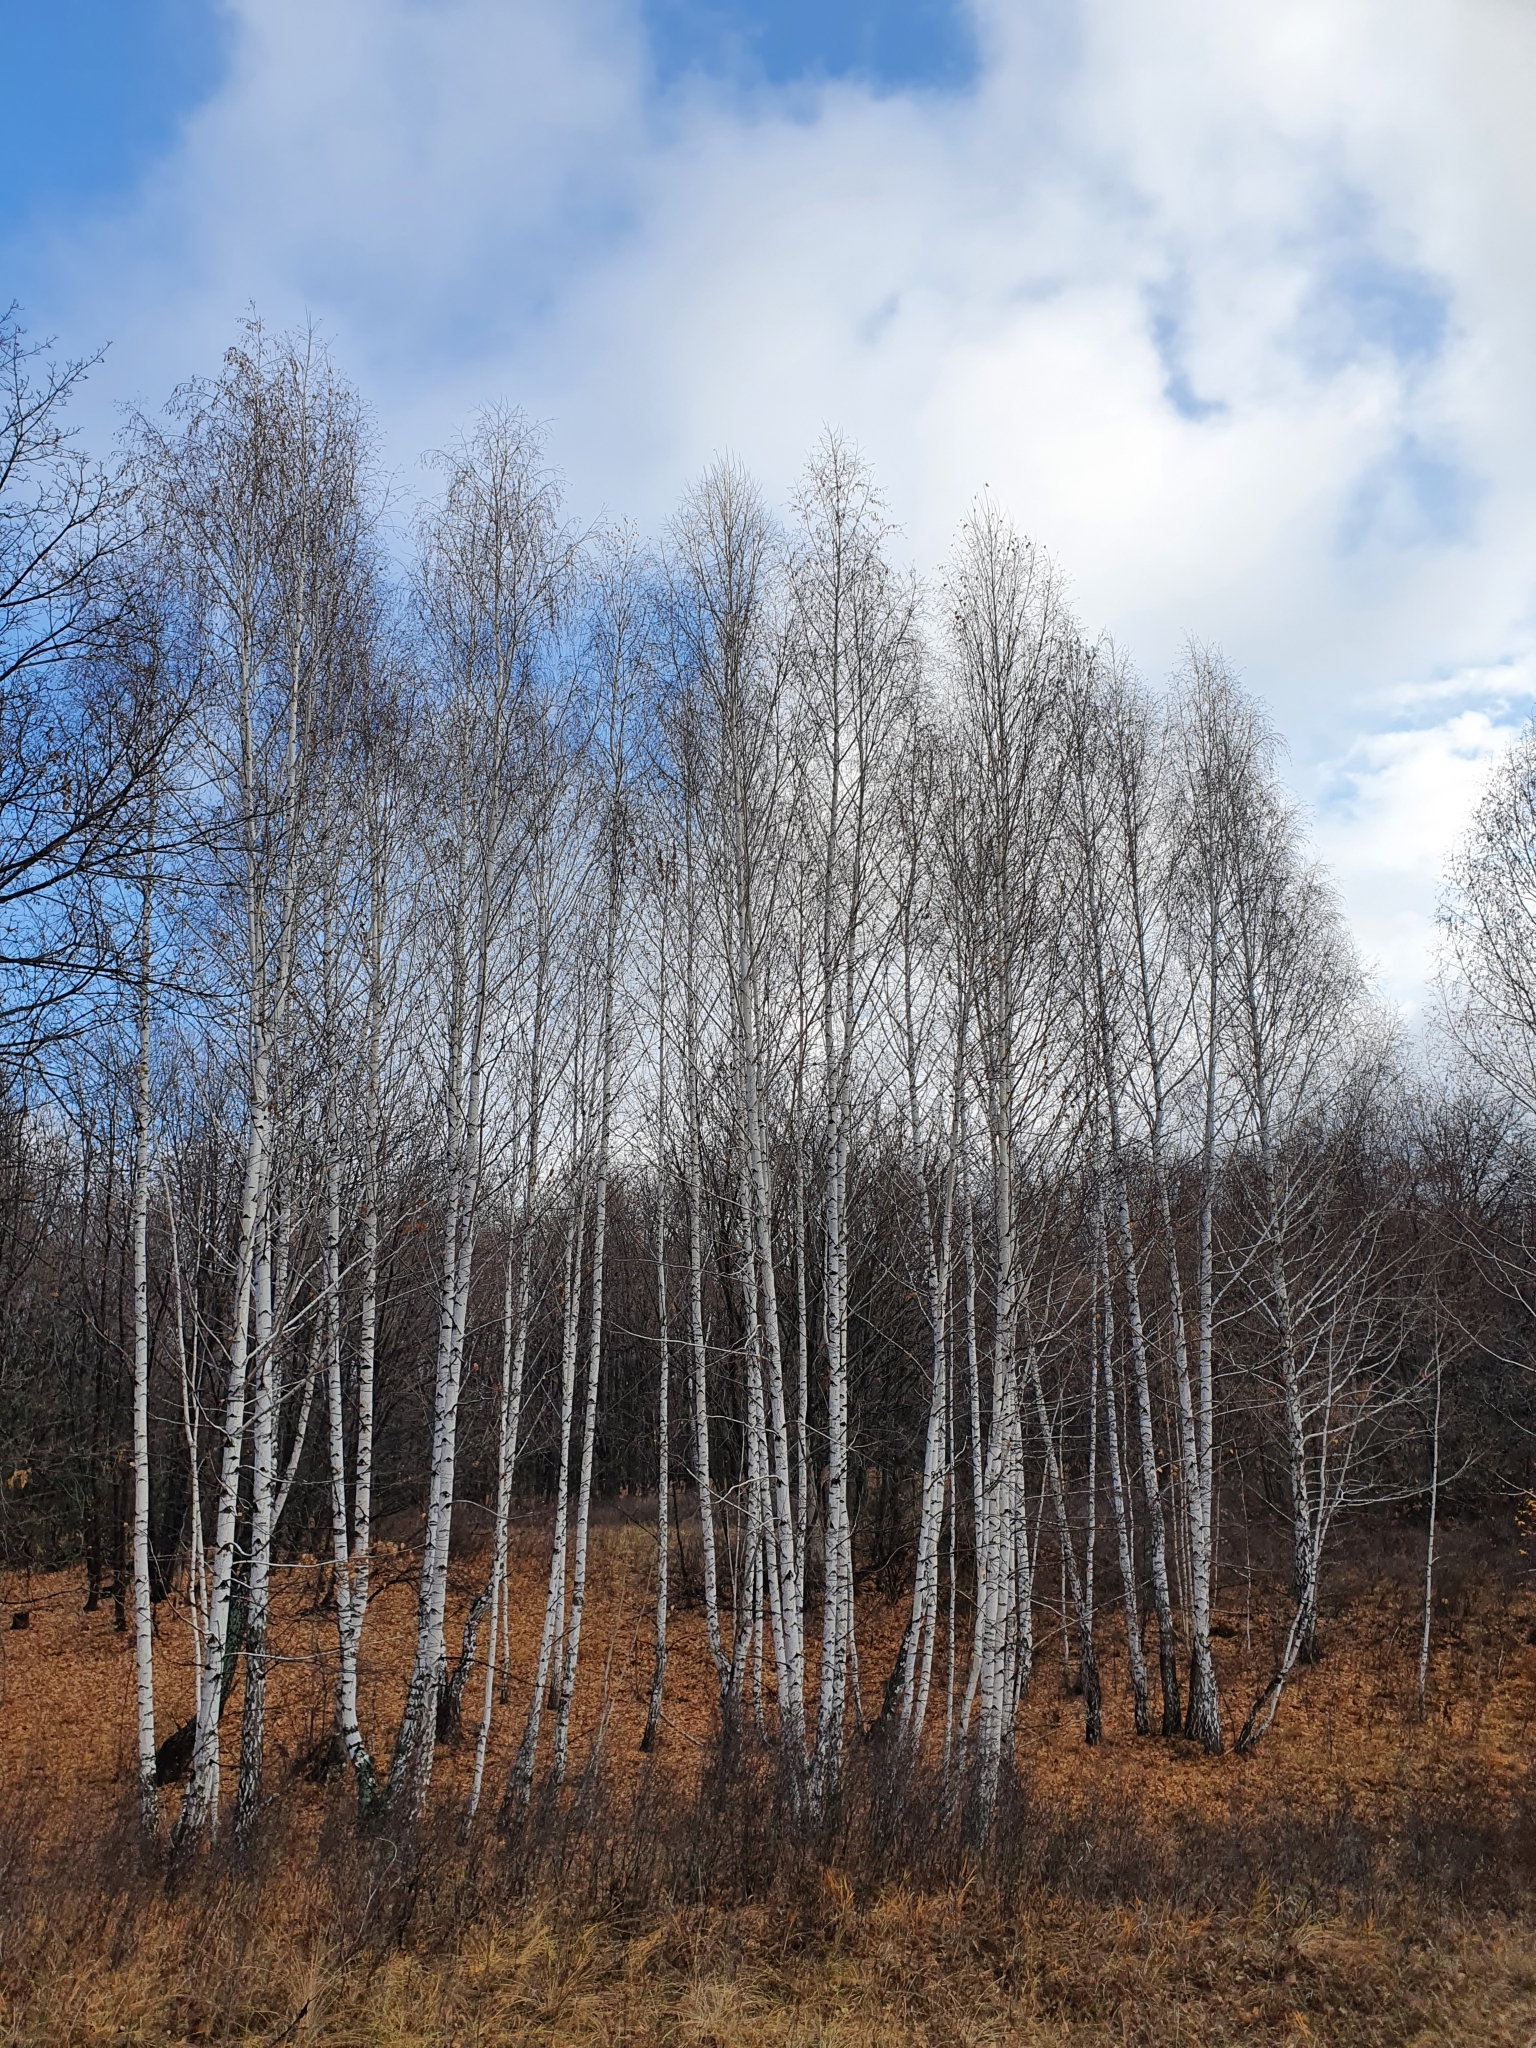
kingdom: Plantae
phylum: Tracheophyta
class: Magnoliopsida
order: Fagales
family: Betulaceae
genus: Betula
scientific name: Betula pendula
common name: Silver birch
